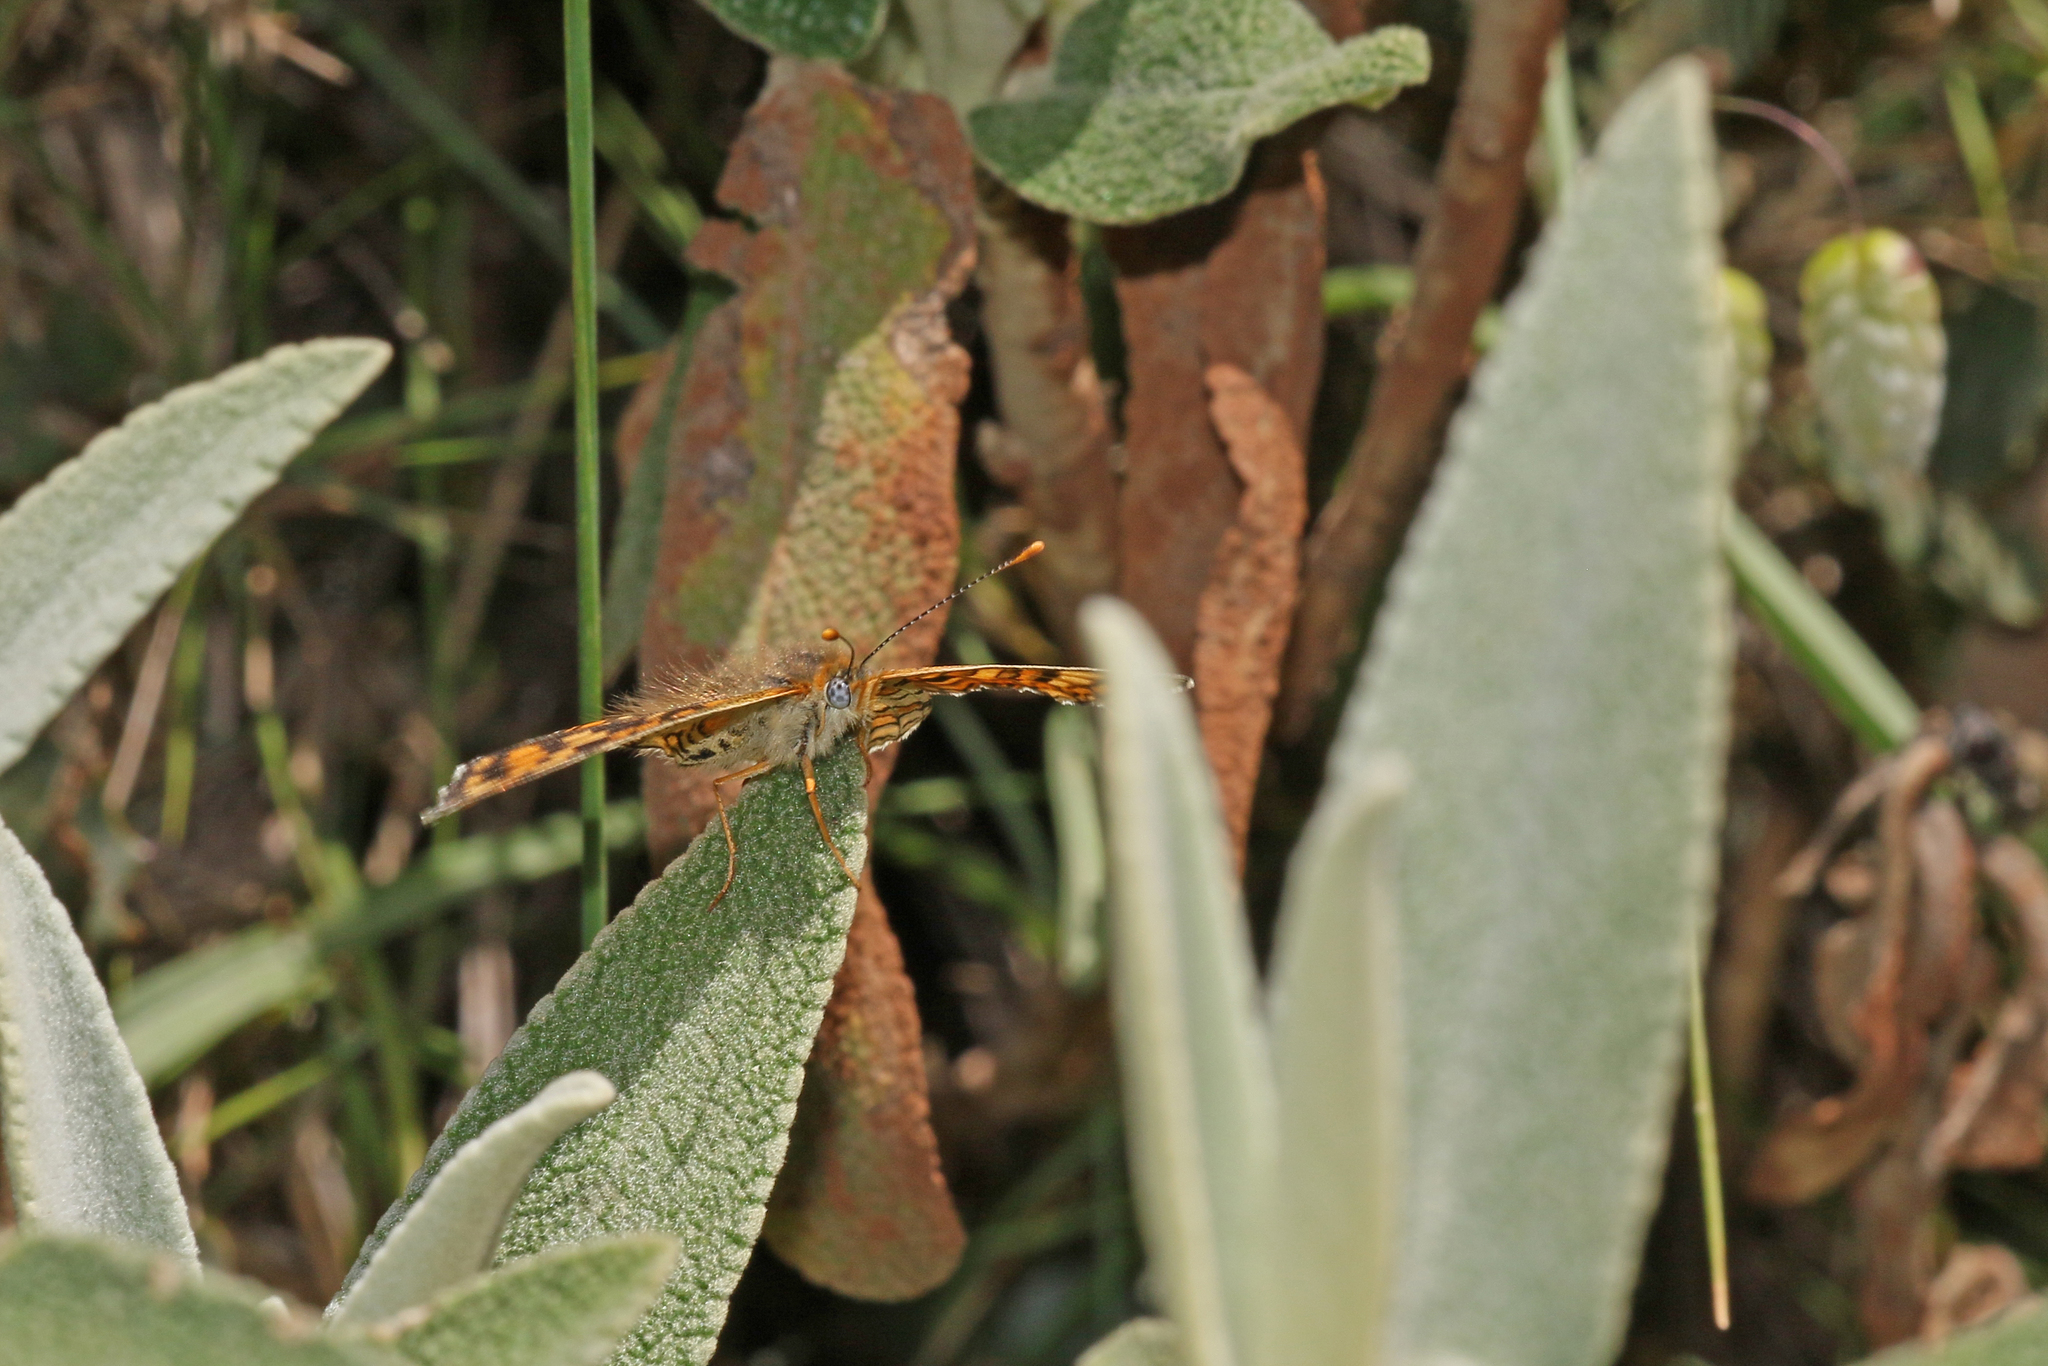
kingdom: Animalia
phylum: Arthropoda
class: Insecta
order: Lepidoptera
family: Nymphalidae
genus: Melitaea
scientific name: Melitaea phoebe
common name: Knapweed fritillary
